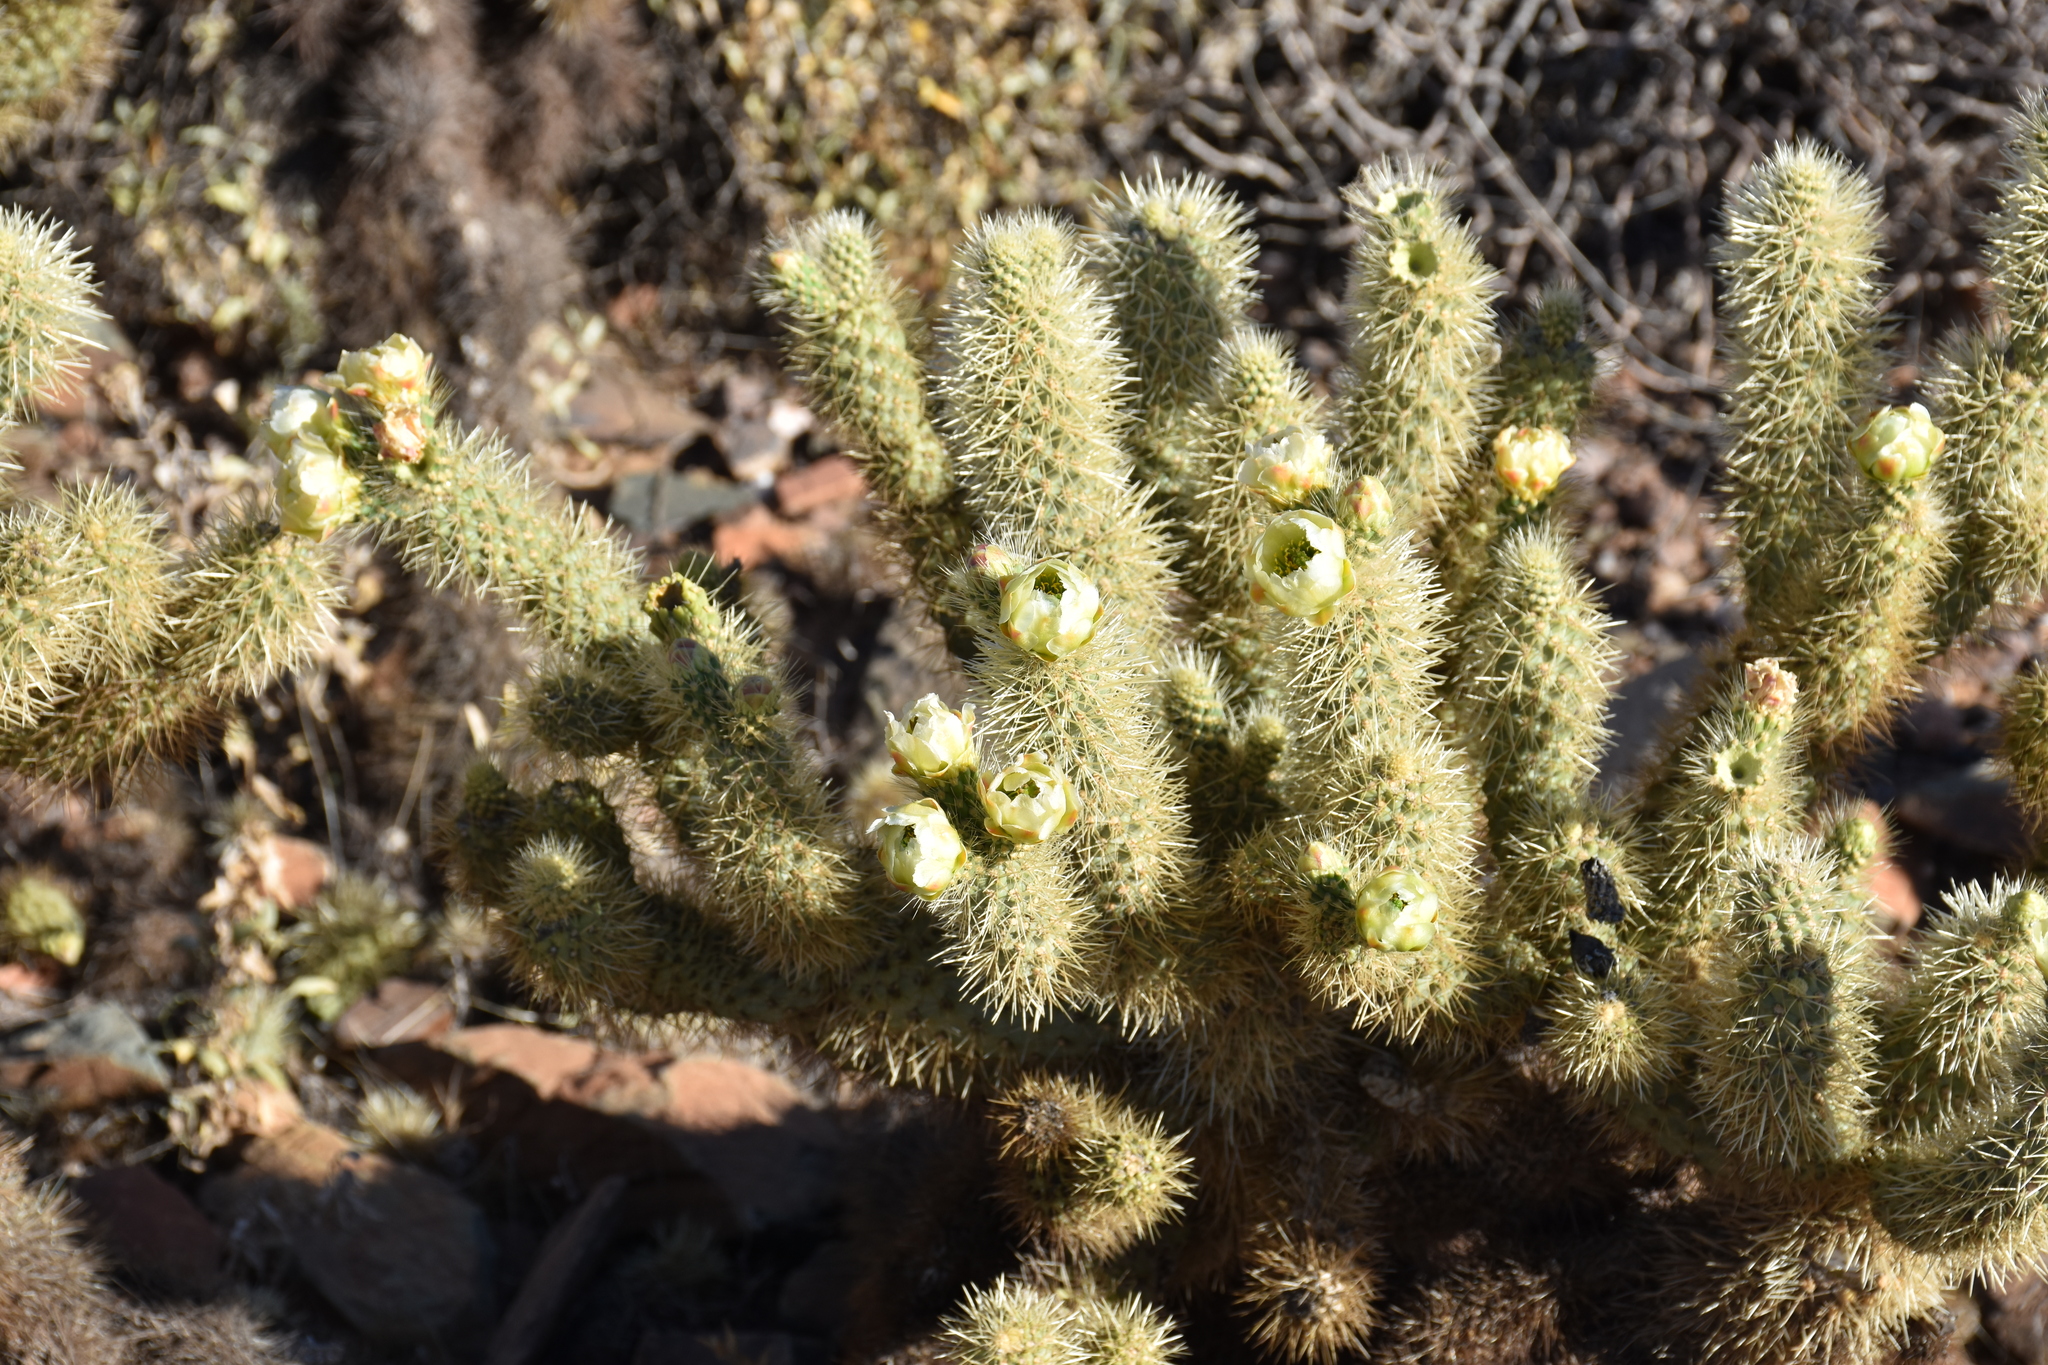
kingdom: Plantae
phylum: Tracheophyta
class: Magnoliopsida
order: Caryophyllales
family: Cactaceae
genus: Cylindropuntia
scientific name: Cylindropuntia fosbergii
